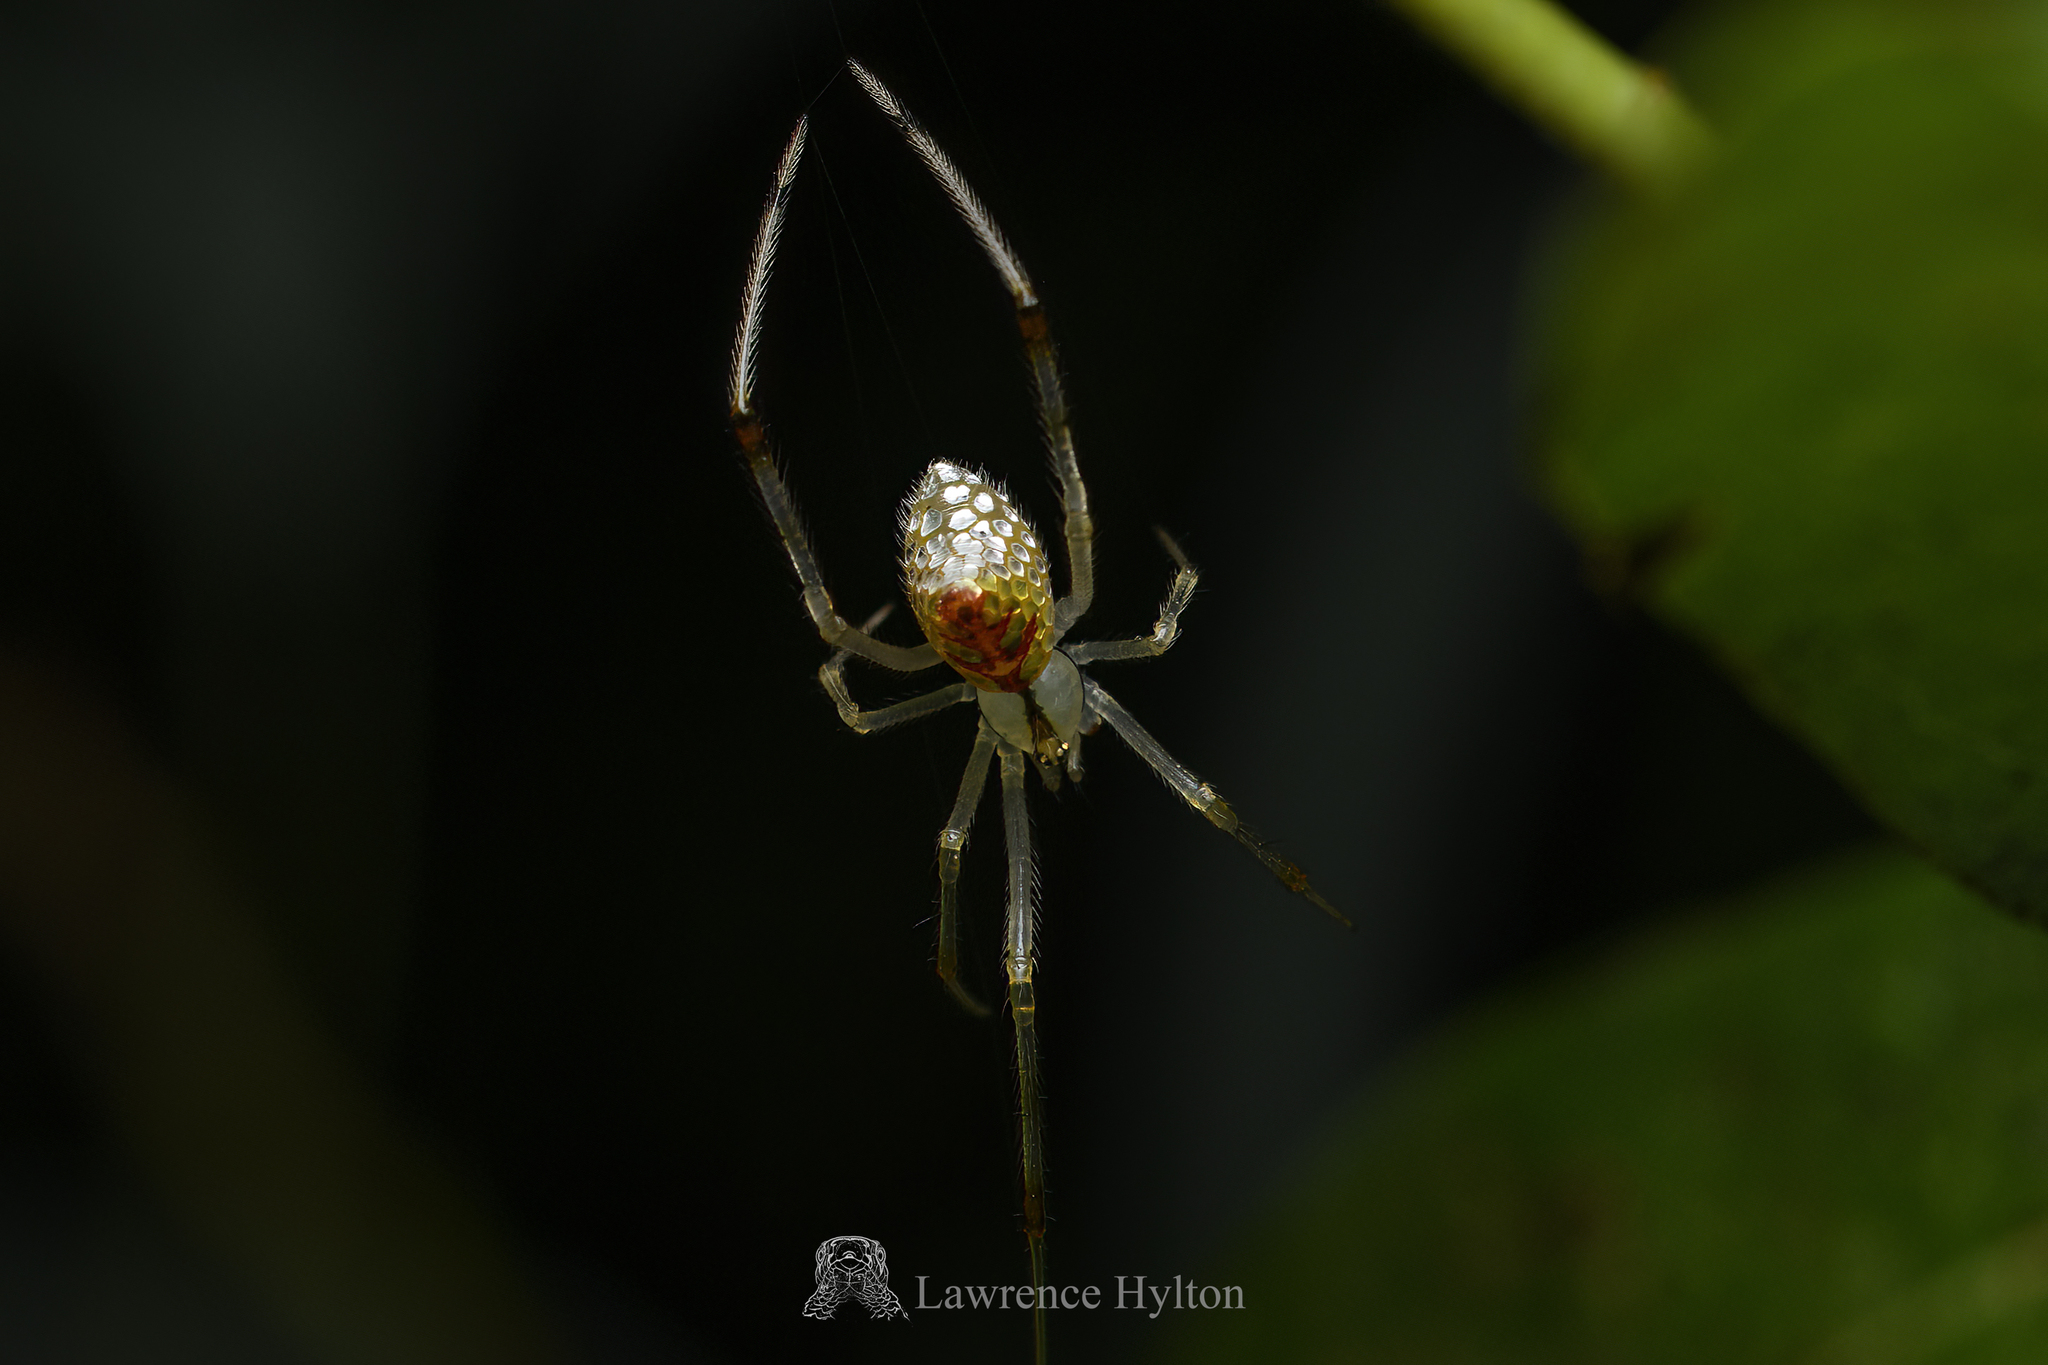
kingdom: Animalia
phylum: Arthropoda
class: Arachnida
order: Araneae
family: Theridiidae
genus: Thwaitesia
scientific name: Thwaitesia margaritifera
